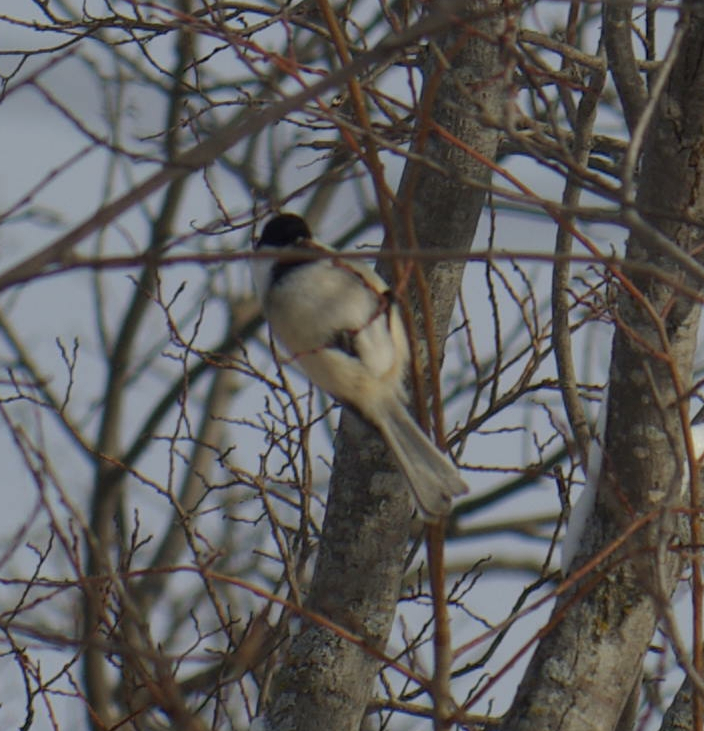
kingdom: Animalia
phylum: Chordata
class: Aves
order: Passeriformes
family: Paridae
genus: Poecile
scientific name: Poecile atricapillus
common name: Black-capped chickadee
